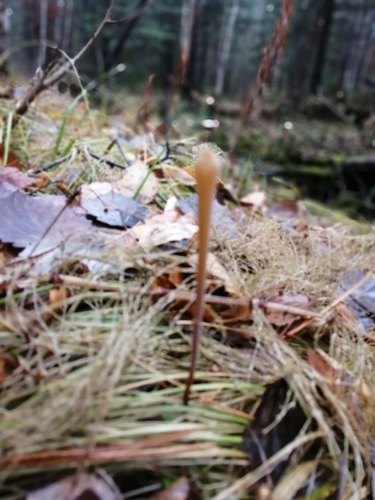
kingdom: Fungi
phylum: Basidiomycota
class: Agaricomycetes
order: Agaricales
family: Typhulaceae
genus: Typhula
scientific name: Typhula fistulosa
